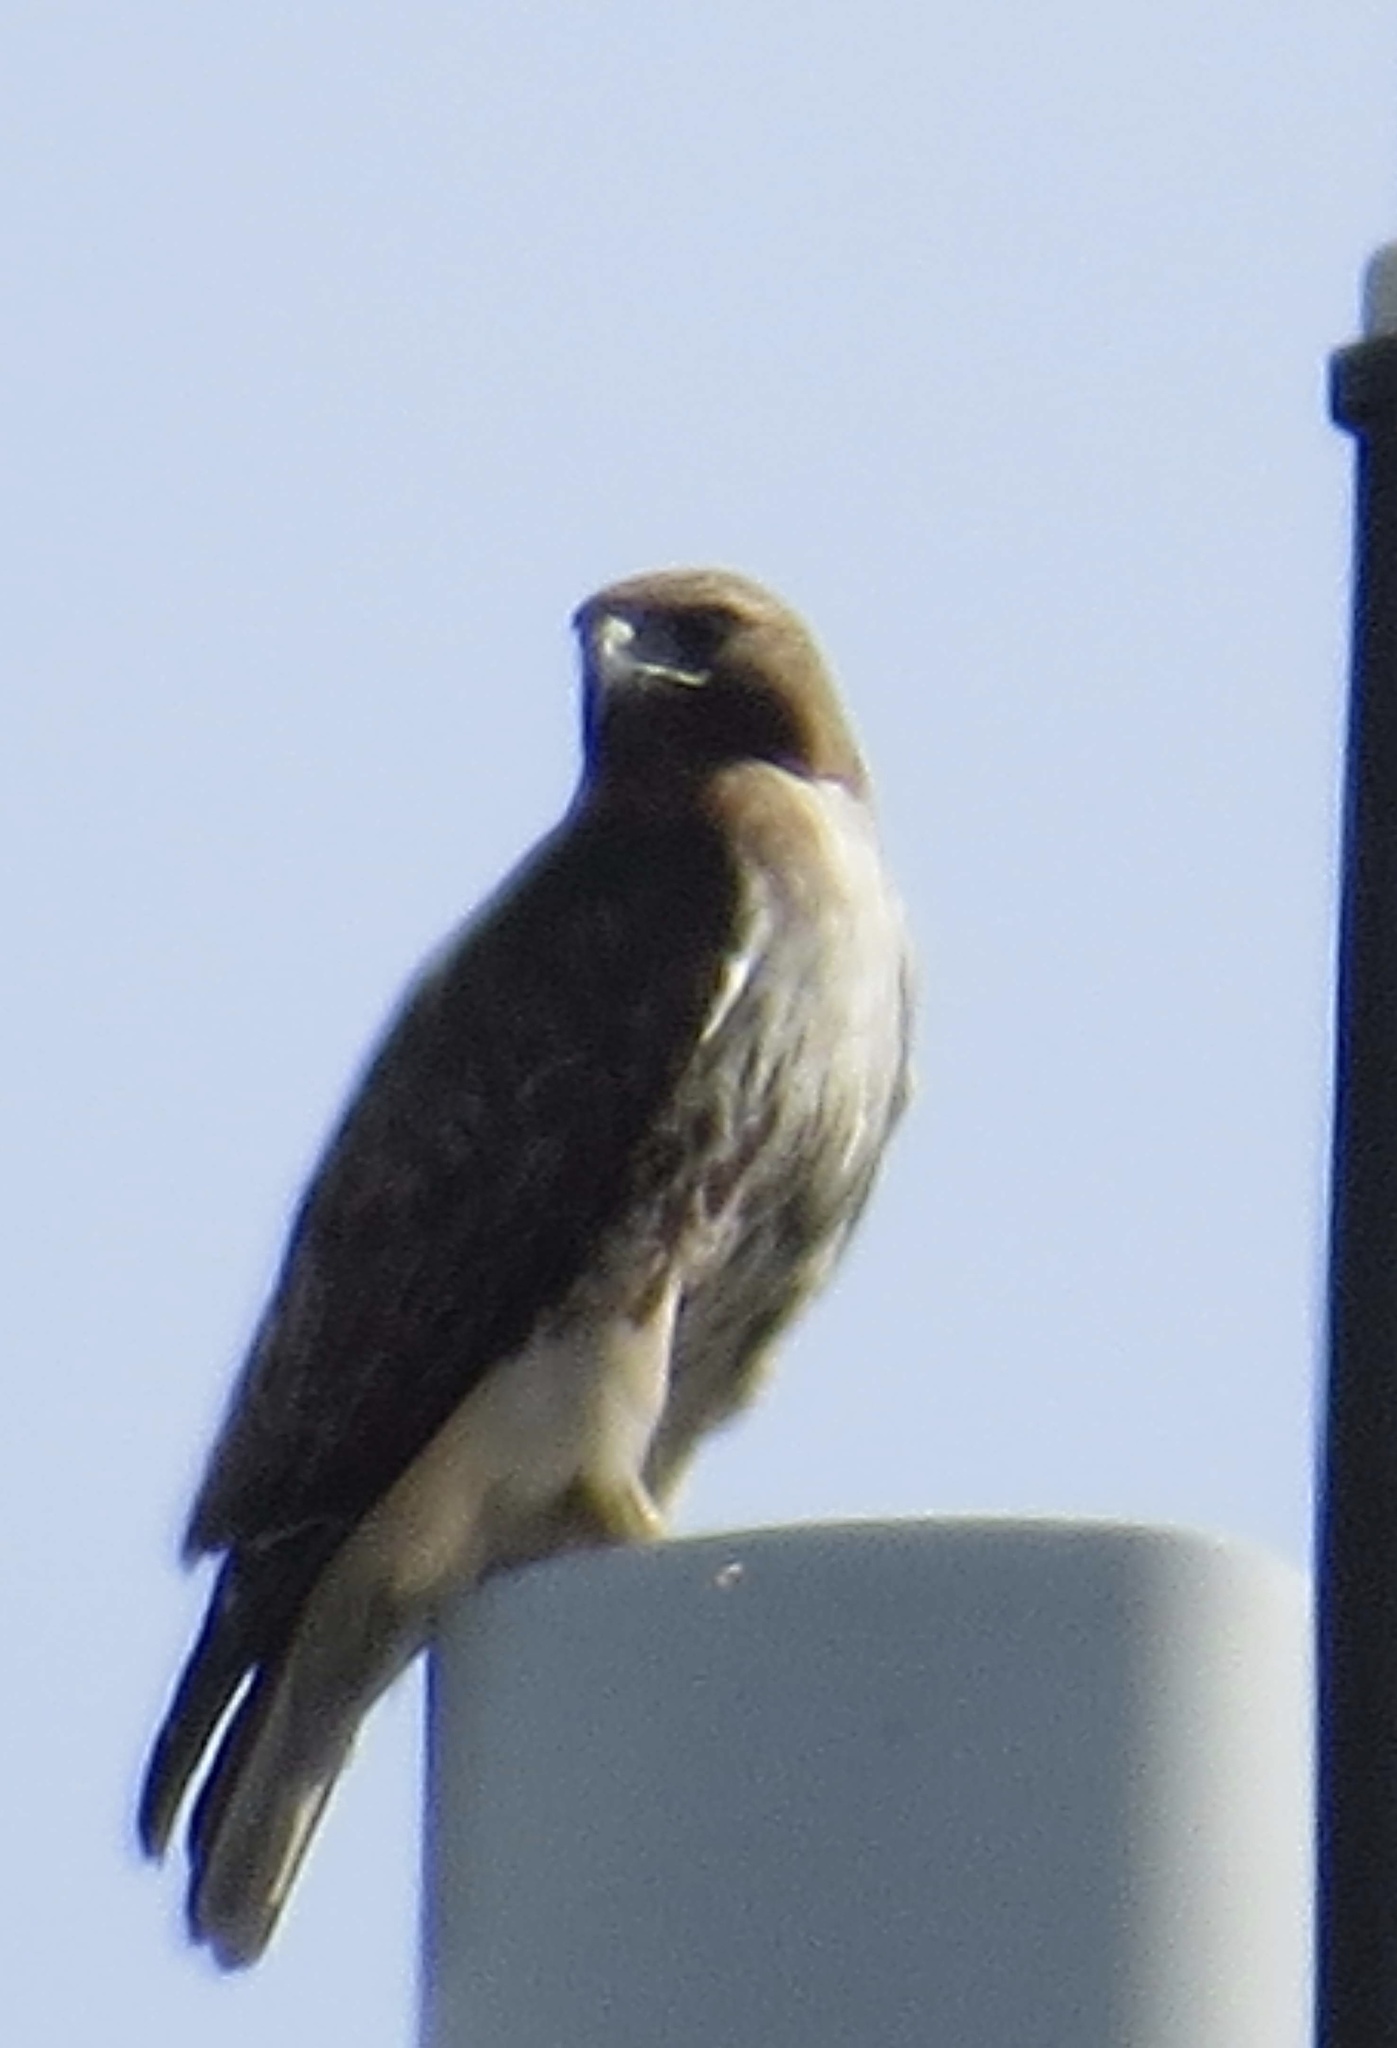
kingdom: Animalia
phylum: Chordata
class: Aves
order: Accipitriformes
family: Accipitridae
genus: Buteo
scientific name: Buteo jamaicensis
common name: Red-tailed hawk
